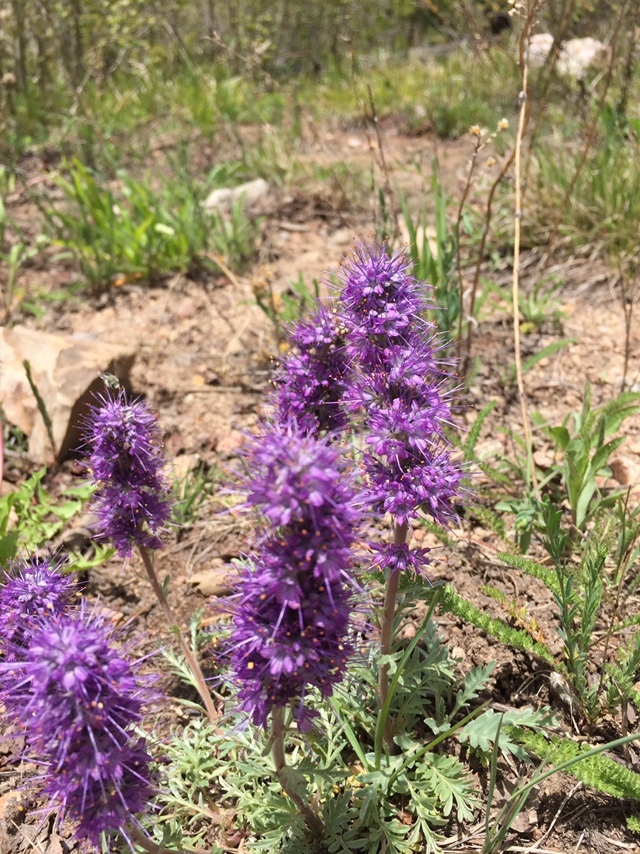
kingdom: Plantae
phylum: Tracheophyta
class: Magnoliopsida
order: Boraginales
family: Hydrophyllaceae
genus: Phacelia
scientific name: Phacelia sericea
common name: Silky phacelia
